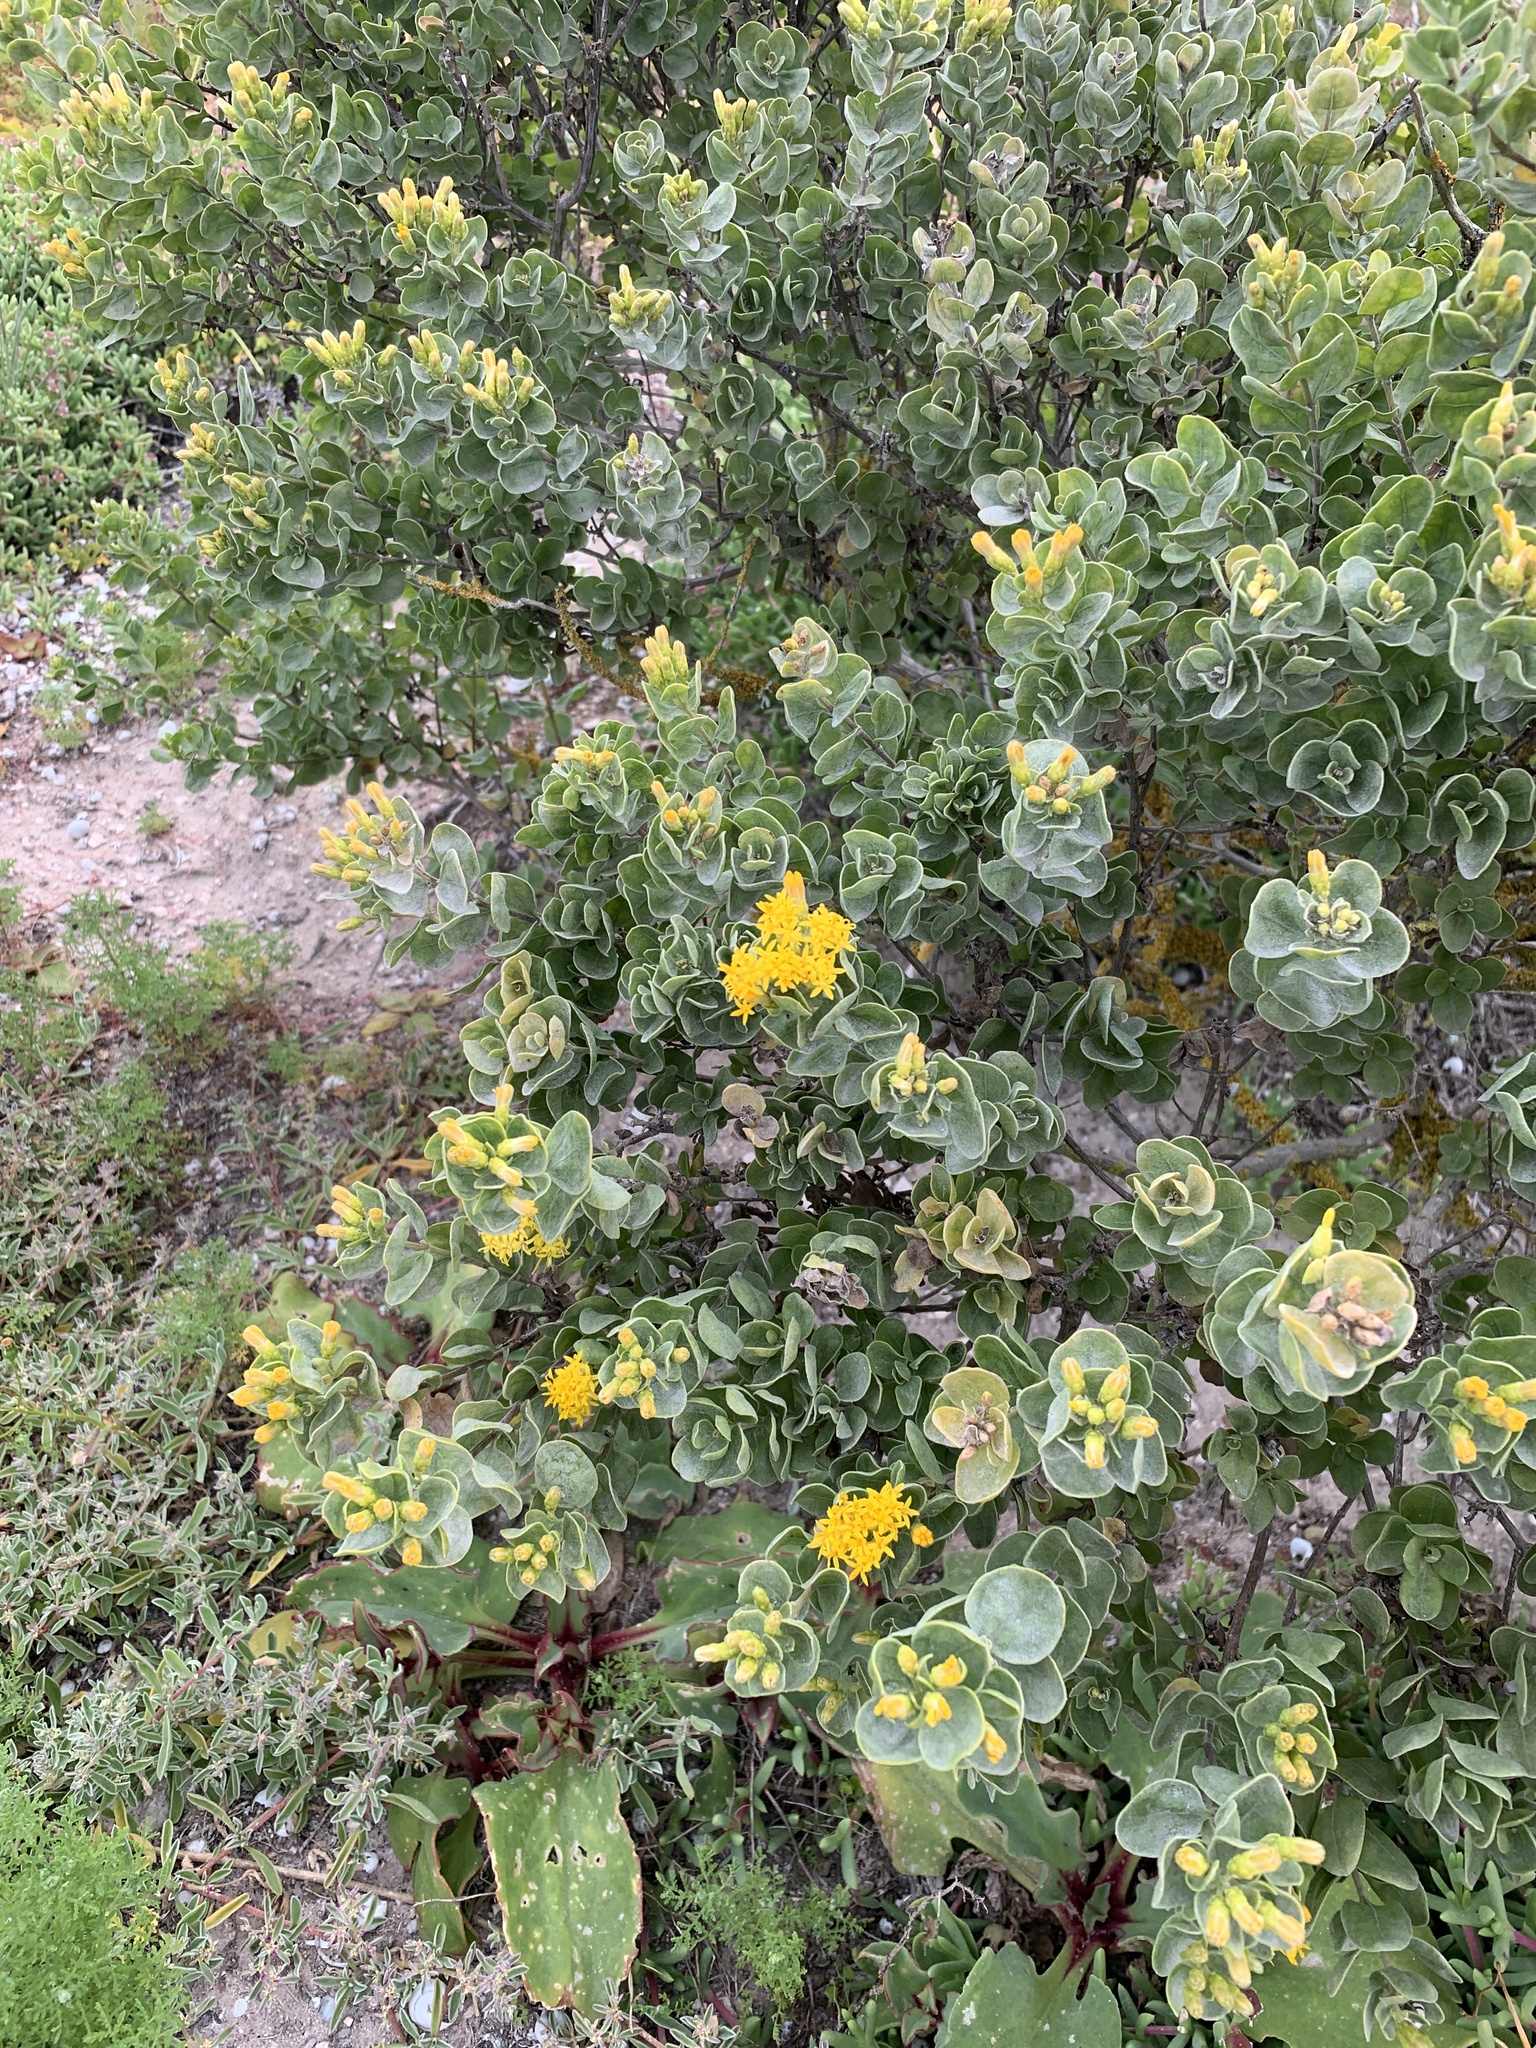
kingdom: Plantae
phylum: Tracheophyta
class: Magnoliopsida
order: Asterales
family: Asteraceae
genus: Pteronia
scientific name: Pteronia divaricata
